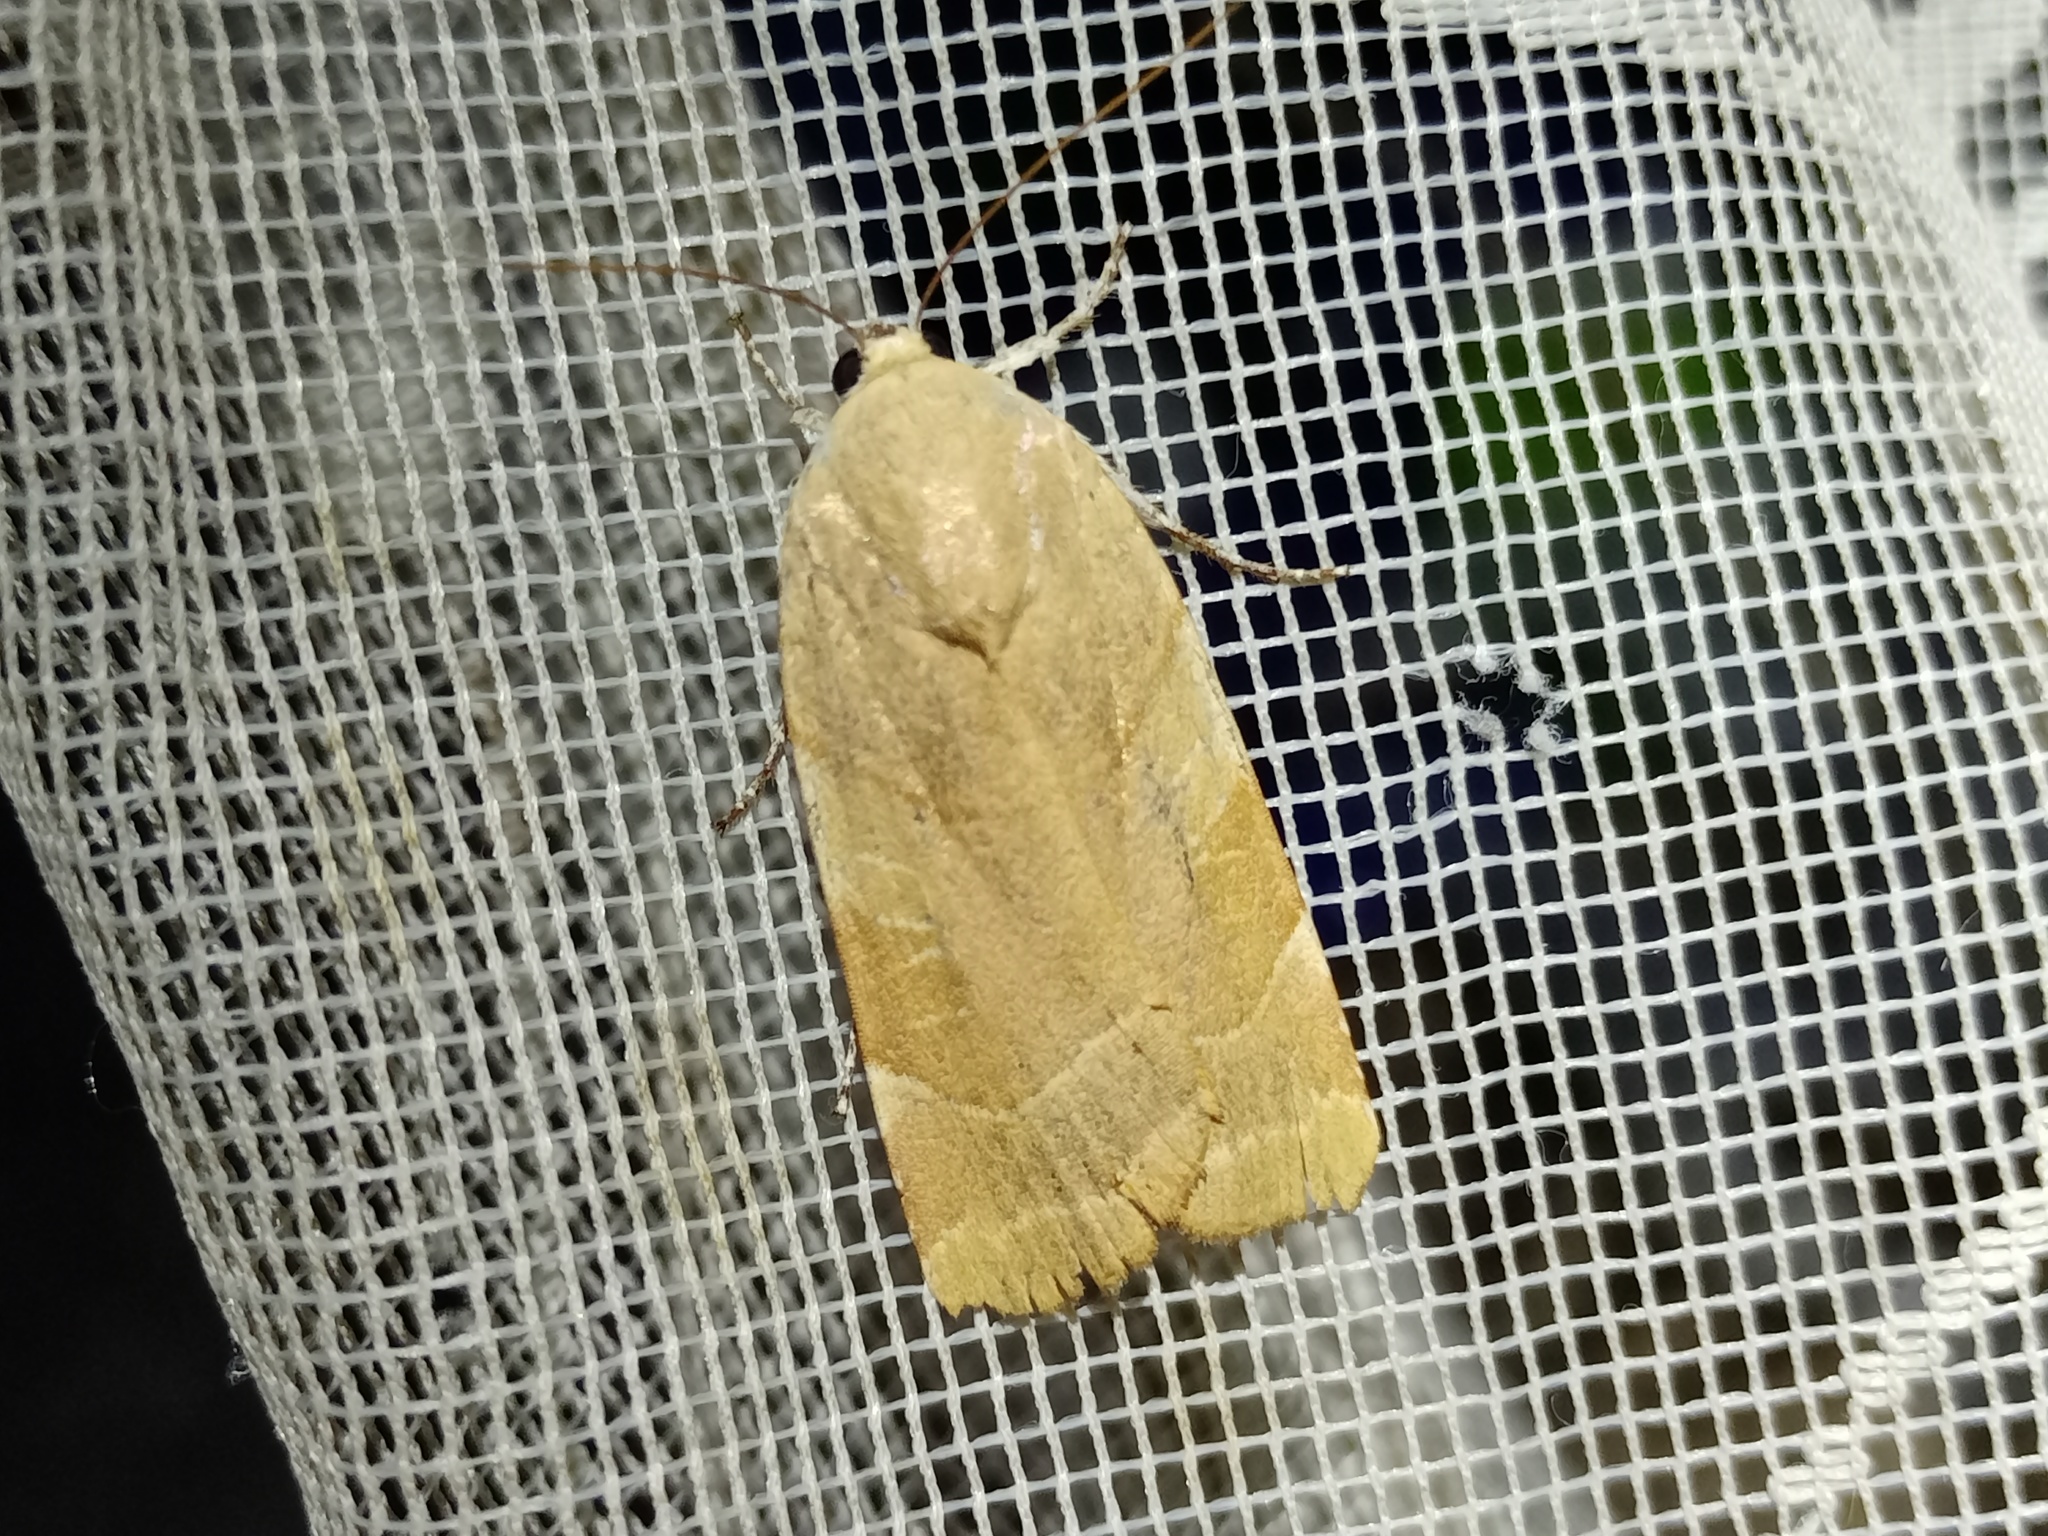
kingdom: Animalia
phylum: Arthropoda
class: Insecta
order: Lepidoptera
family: Noctuidae
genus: Noctua
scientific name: Noctua fimbriata
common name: Broad-bordered yellow underwing
